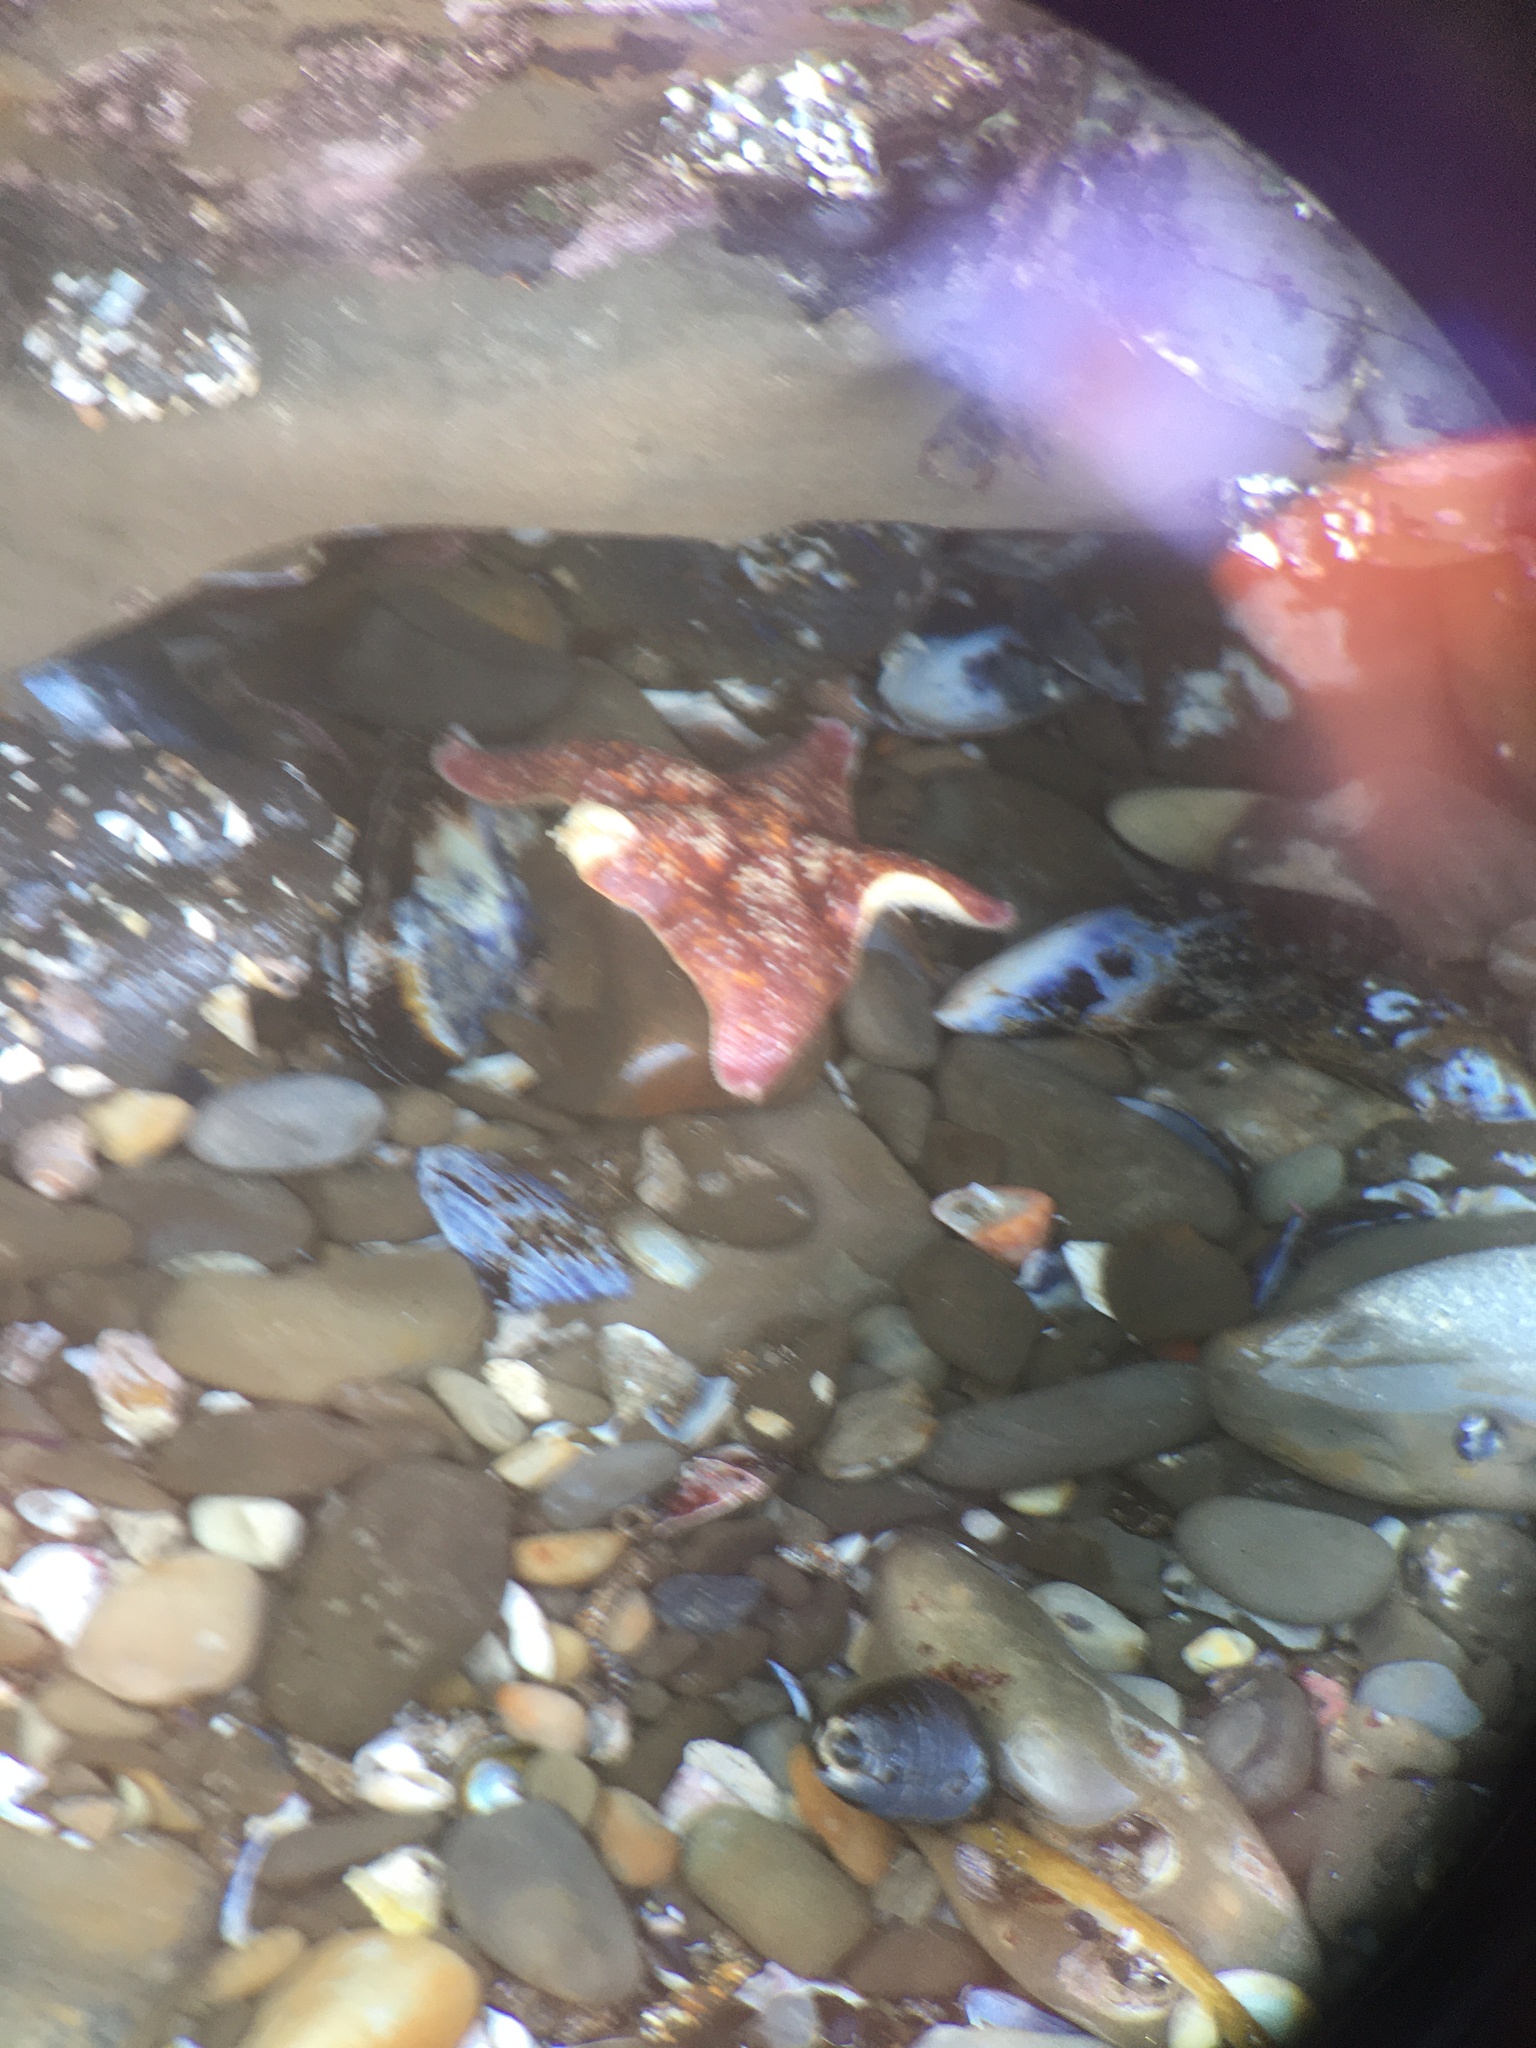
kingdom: Animalia
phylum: Echinodermata
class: Asteroidea
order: Valvatida
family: Asterinidae
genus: Patiria
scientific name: Patiria miniata
